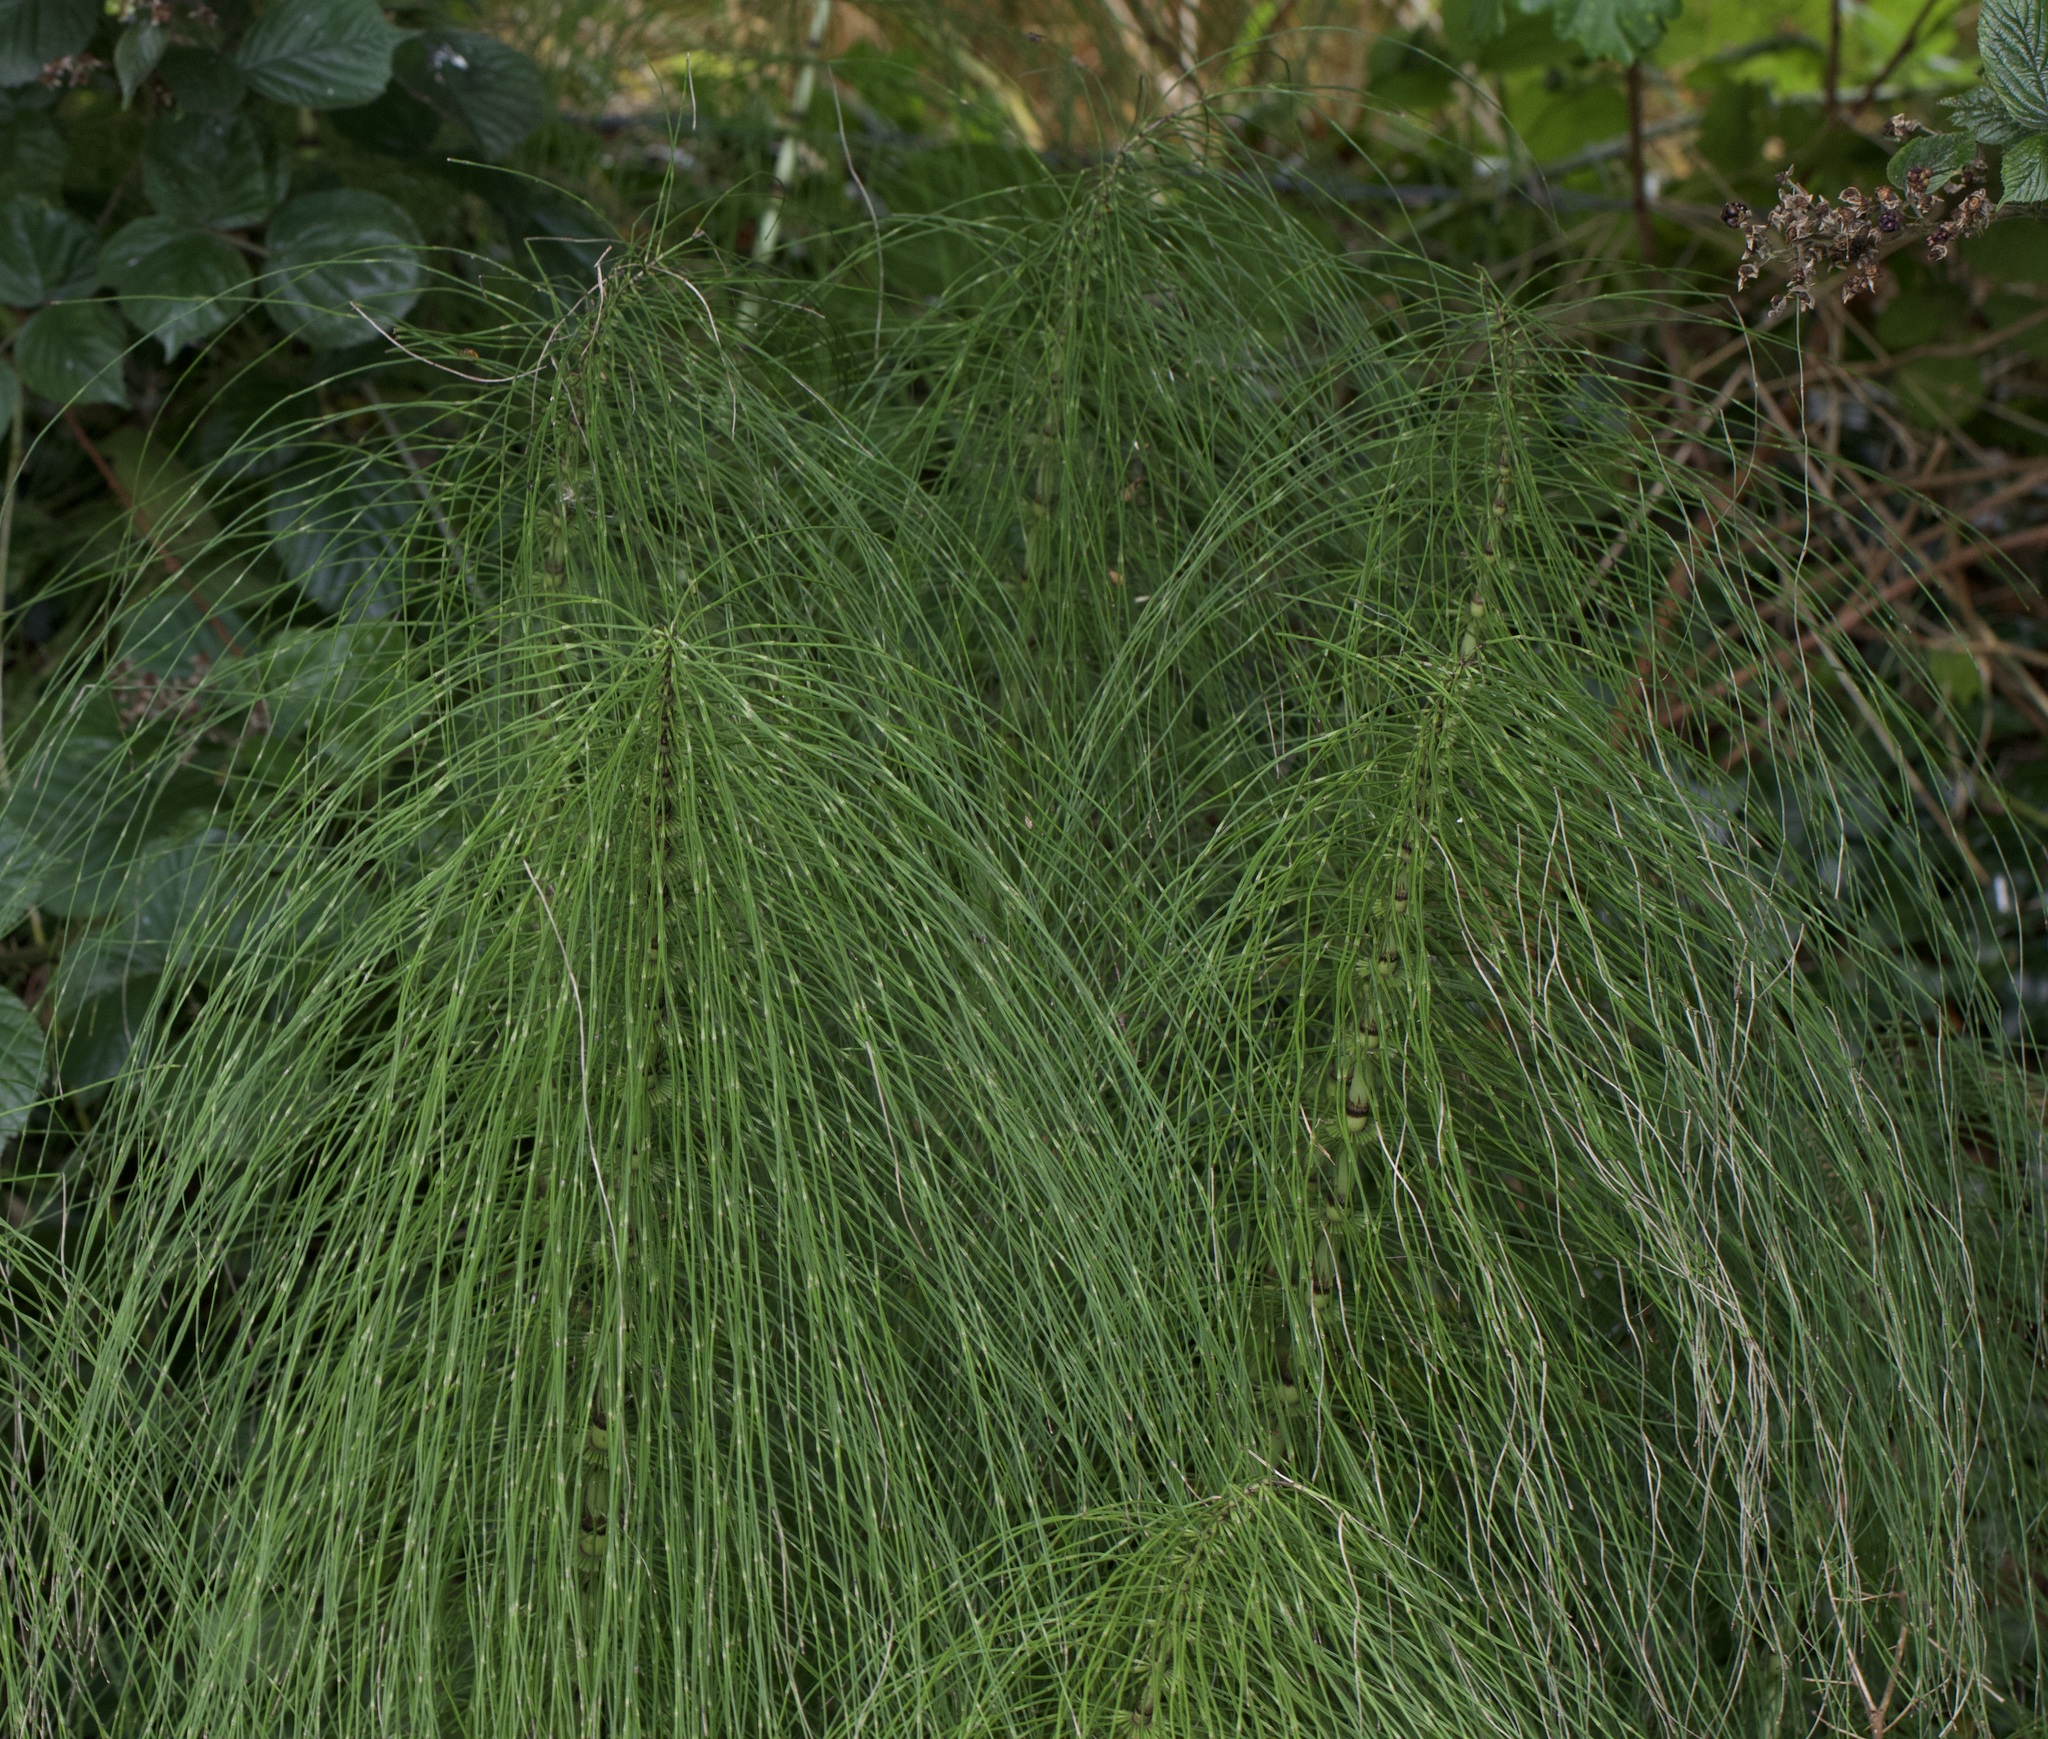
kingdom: Plantae
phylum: Tracheophyta
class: Polypodiopsida
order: Equisetales
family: Equisetaceae
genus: Equisetum
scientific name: Equisetum telmateia
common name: Great horsetail
